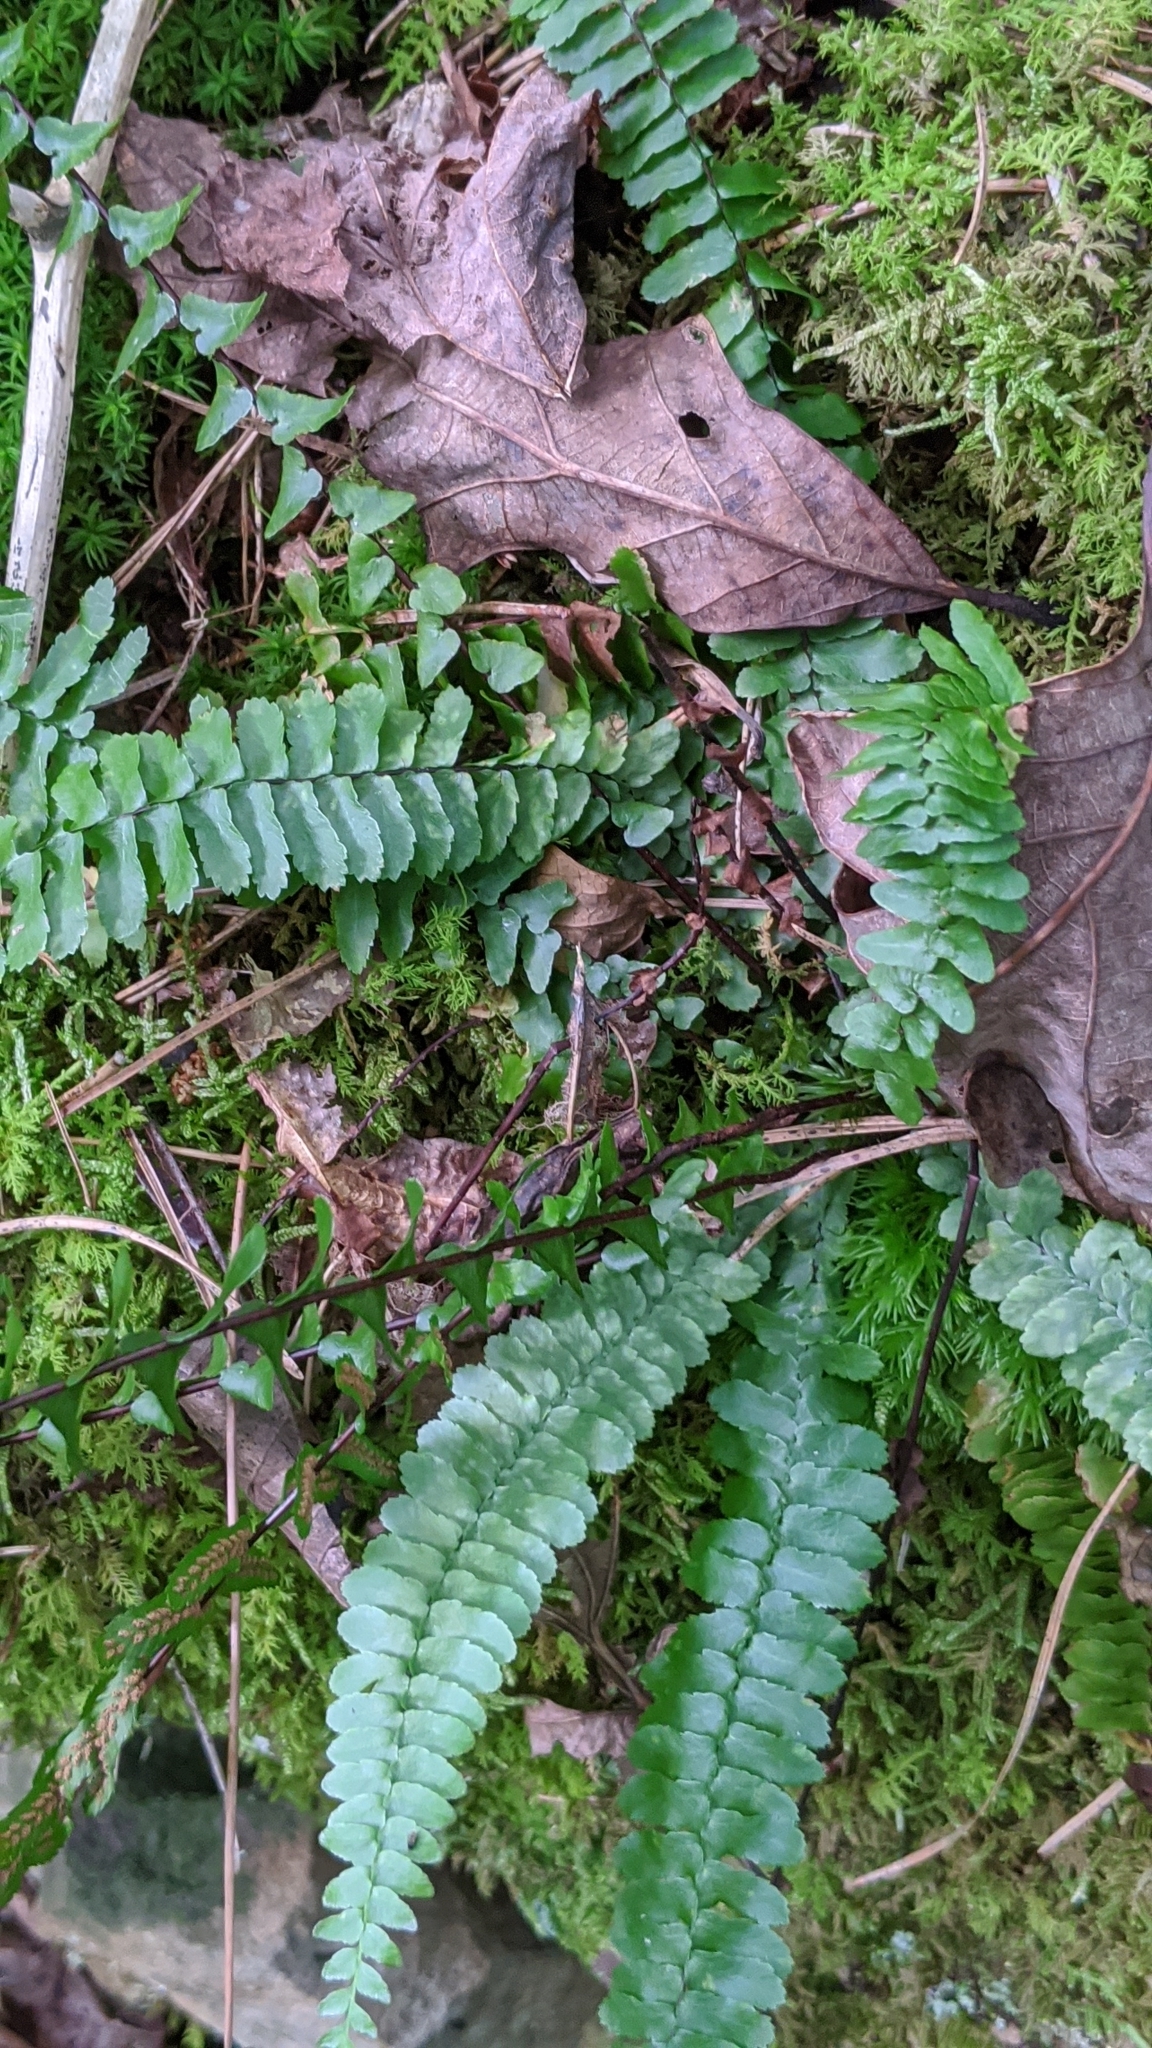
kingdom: Plantae
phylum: Tracheophyta
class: Polypodiopsida
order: Polypodiales
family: Aspleniaceae
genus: Asplenium
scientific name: Asplenium platyneuron
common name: Ebony spleenwort
